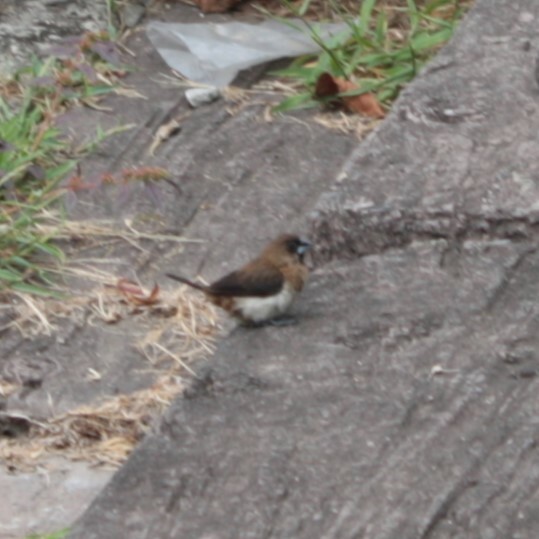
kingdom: Animalia
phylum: Chordata
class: Aves
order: Passeriformes
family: Estrildidae
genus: Lonchura
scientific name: Lonchura striata
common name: White-rumped munia
